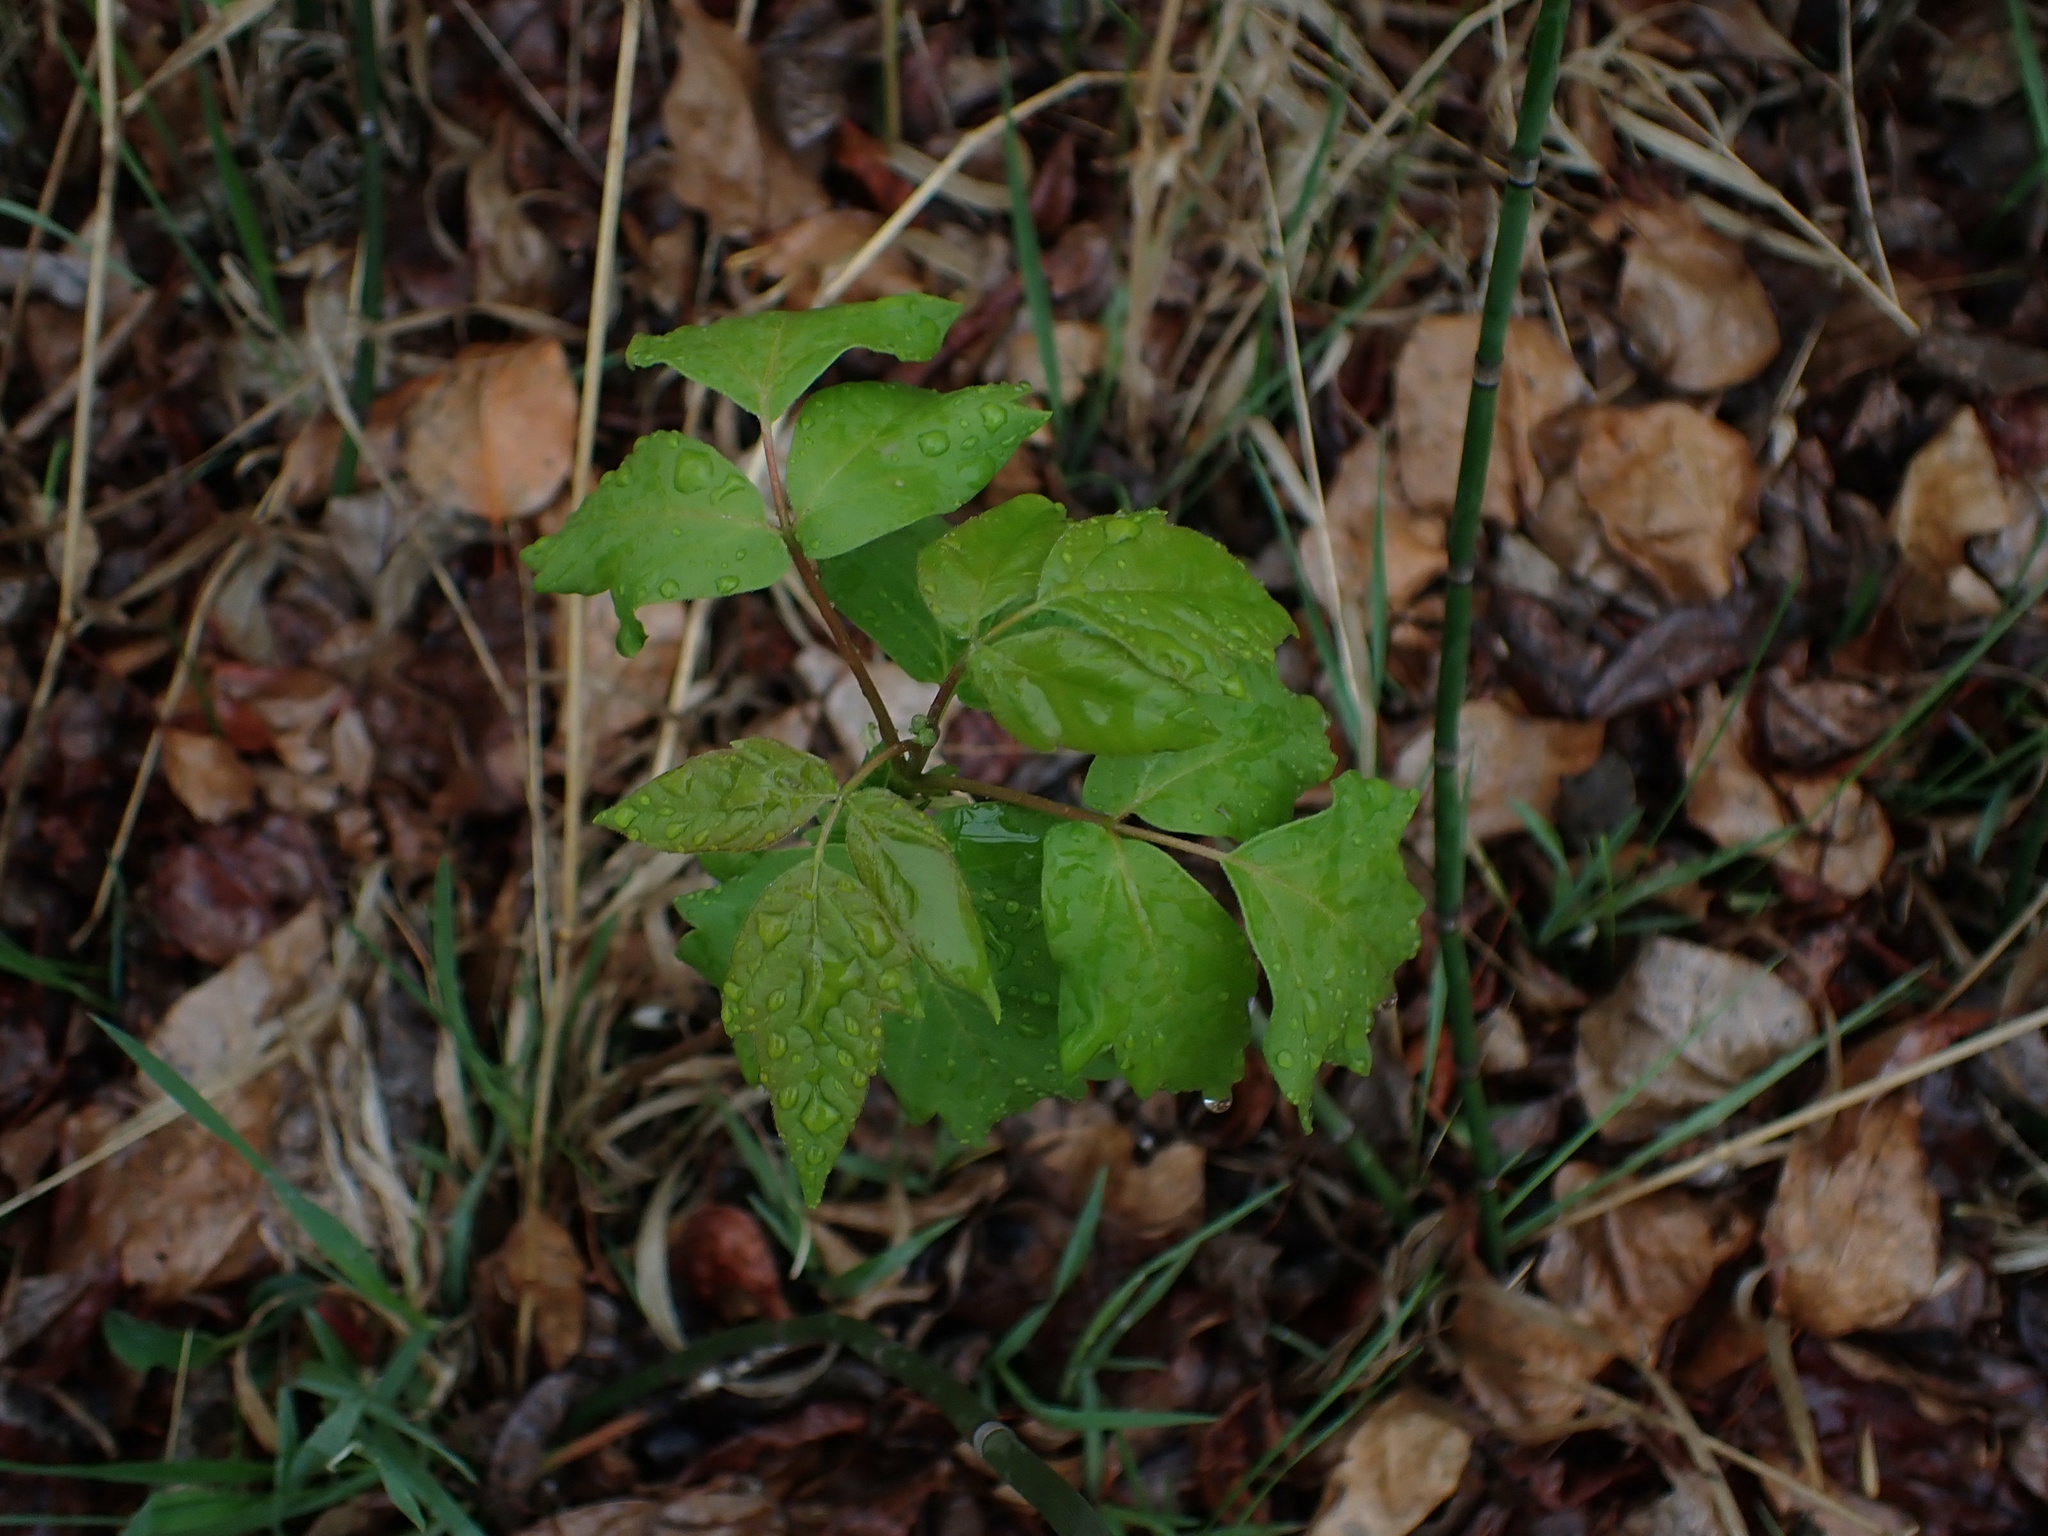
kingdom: Plantae
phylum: Tracheophyta
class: Magnoliopsida
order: Sapindales
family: Sapindaceae
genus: Acer
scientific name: Acer negundo
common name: Ashleaf maple
